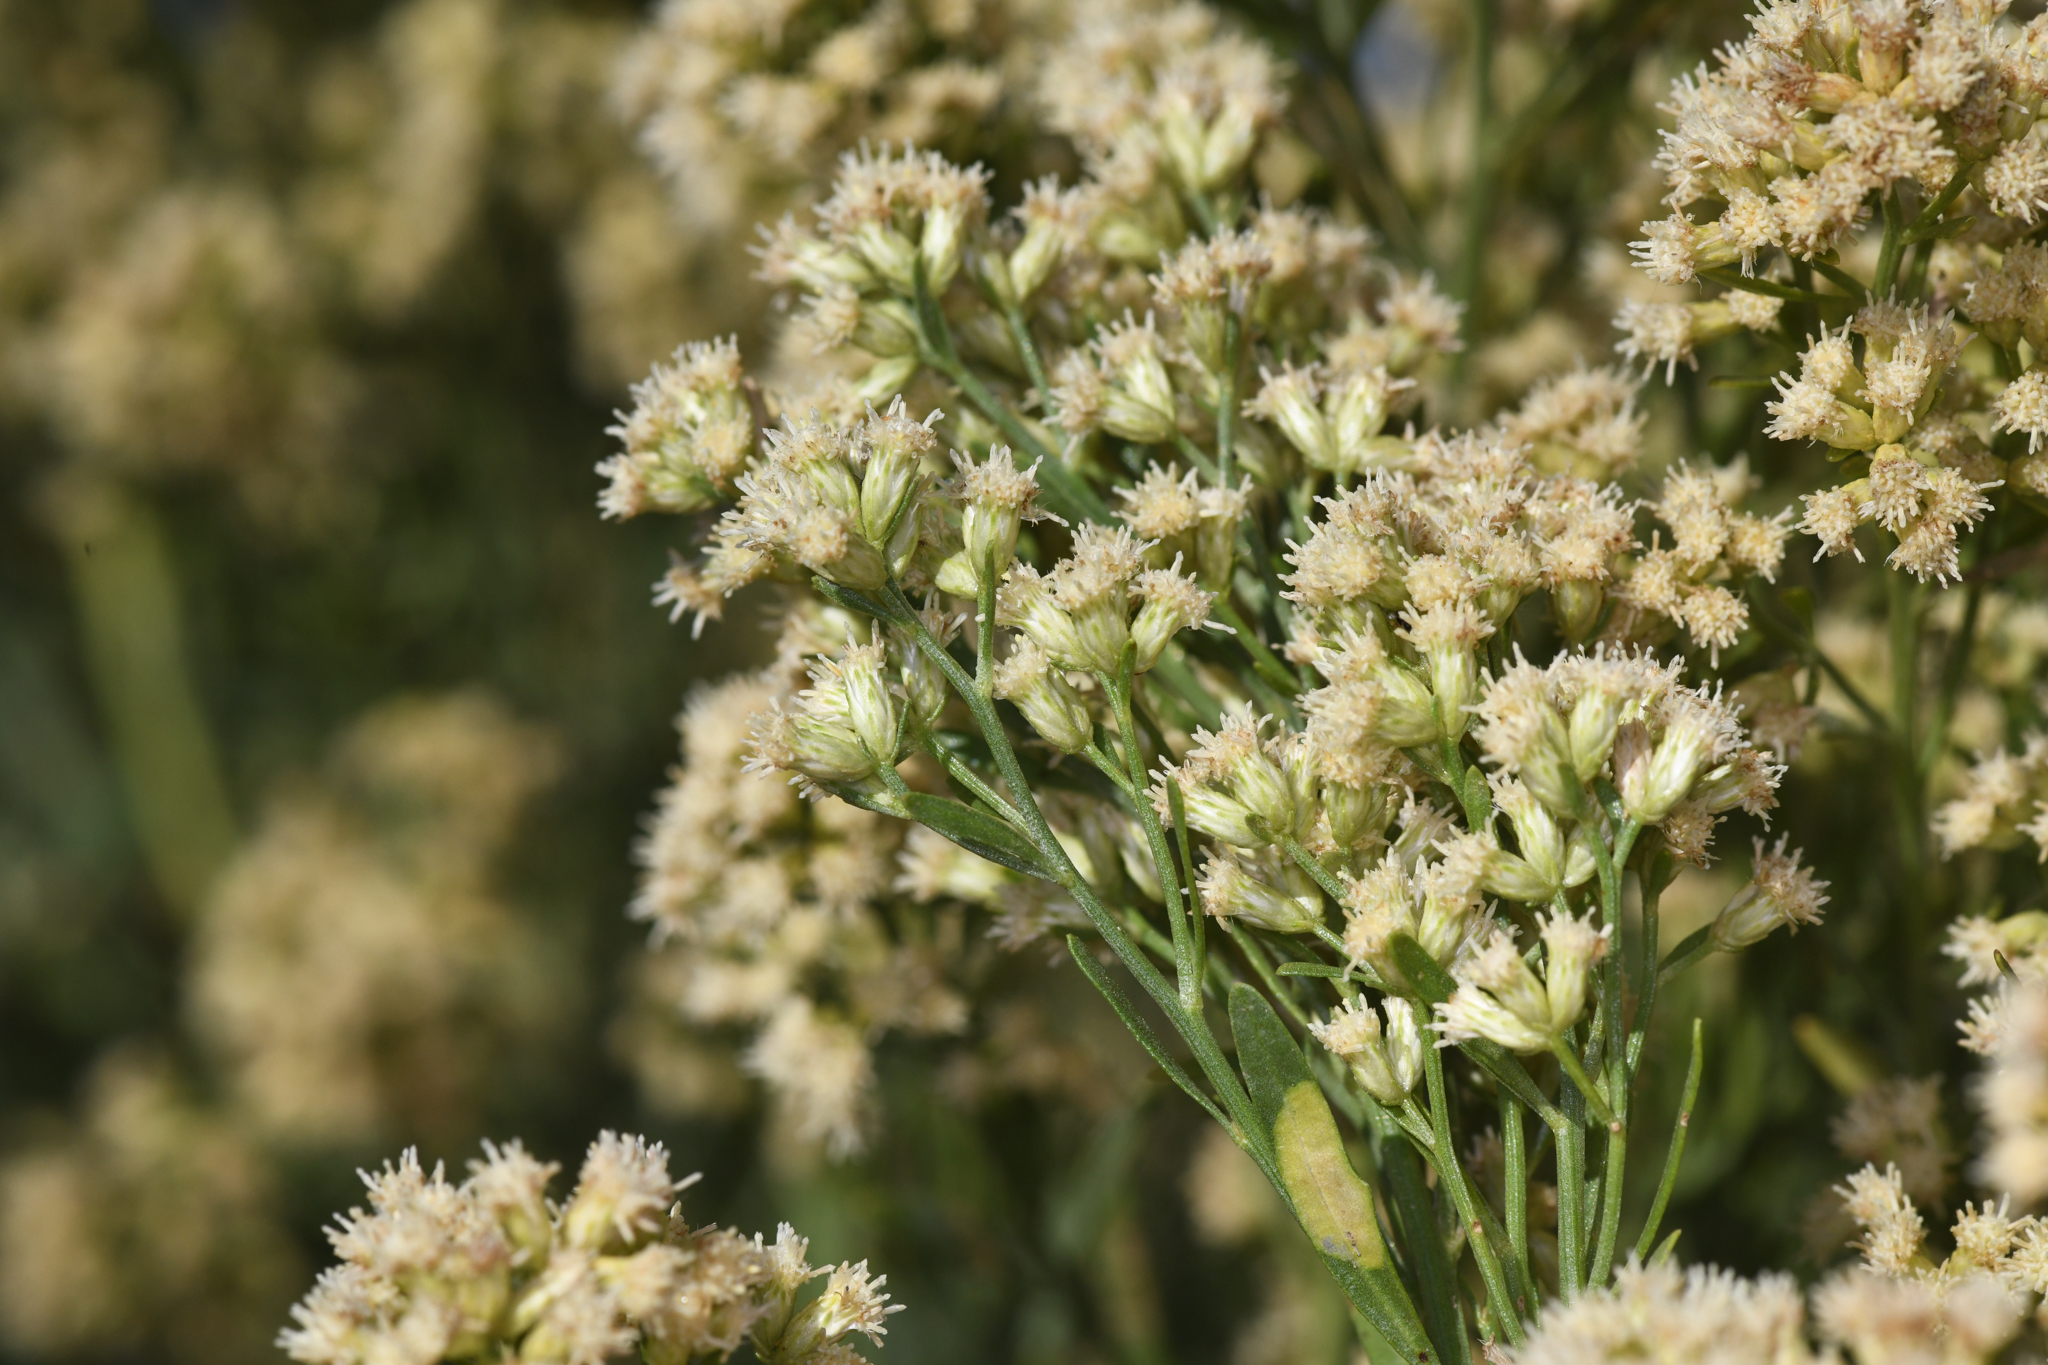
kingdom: Plantae
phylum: Tracheophyta
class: Magnoliopsida
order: Asterales
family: Asteraceae
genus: Baccharis
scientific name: Baccharis salicina
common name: Willow baccharis
